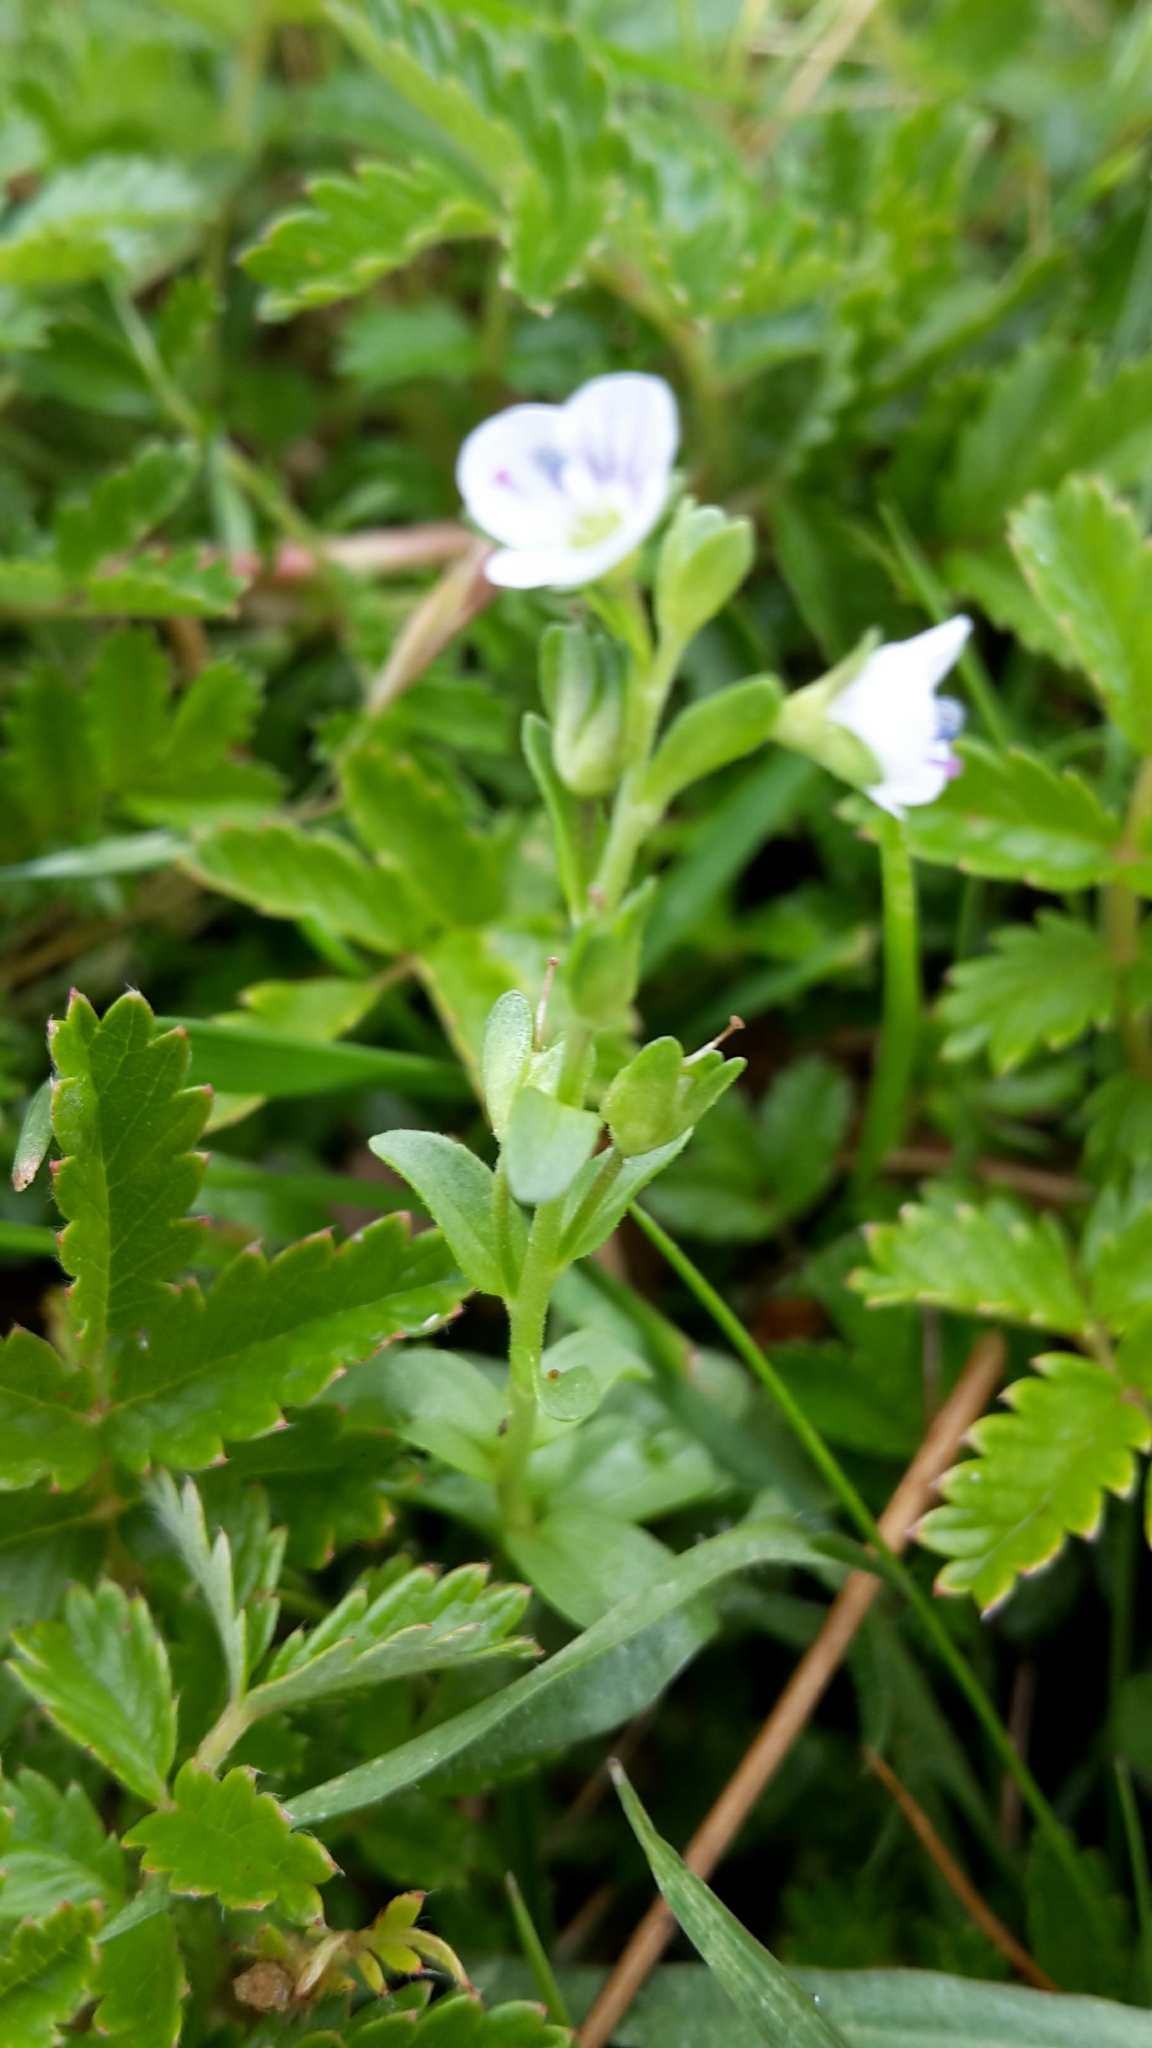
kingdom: Plantae
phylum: Tracheophyta
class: Magnoliopsida
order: Lamiales
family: Plantaginaceae
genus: Veronica
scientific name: Veronica serpyllifolia
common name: Thyme-leaved speedwell
